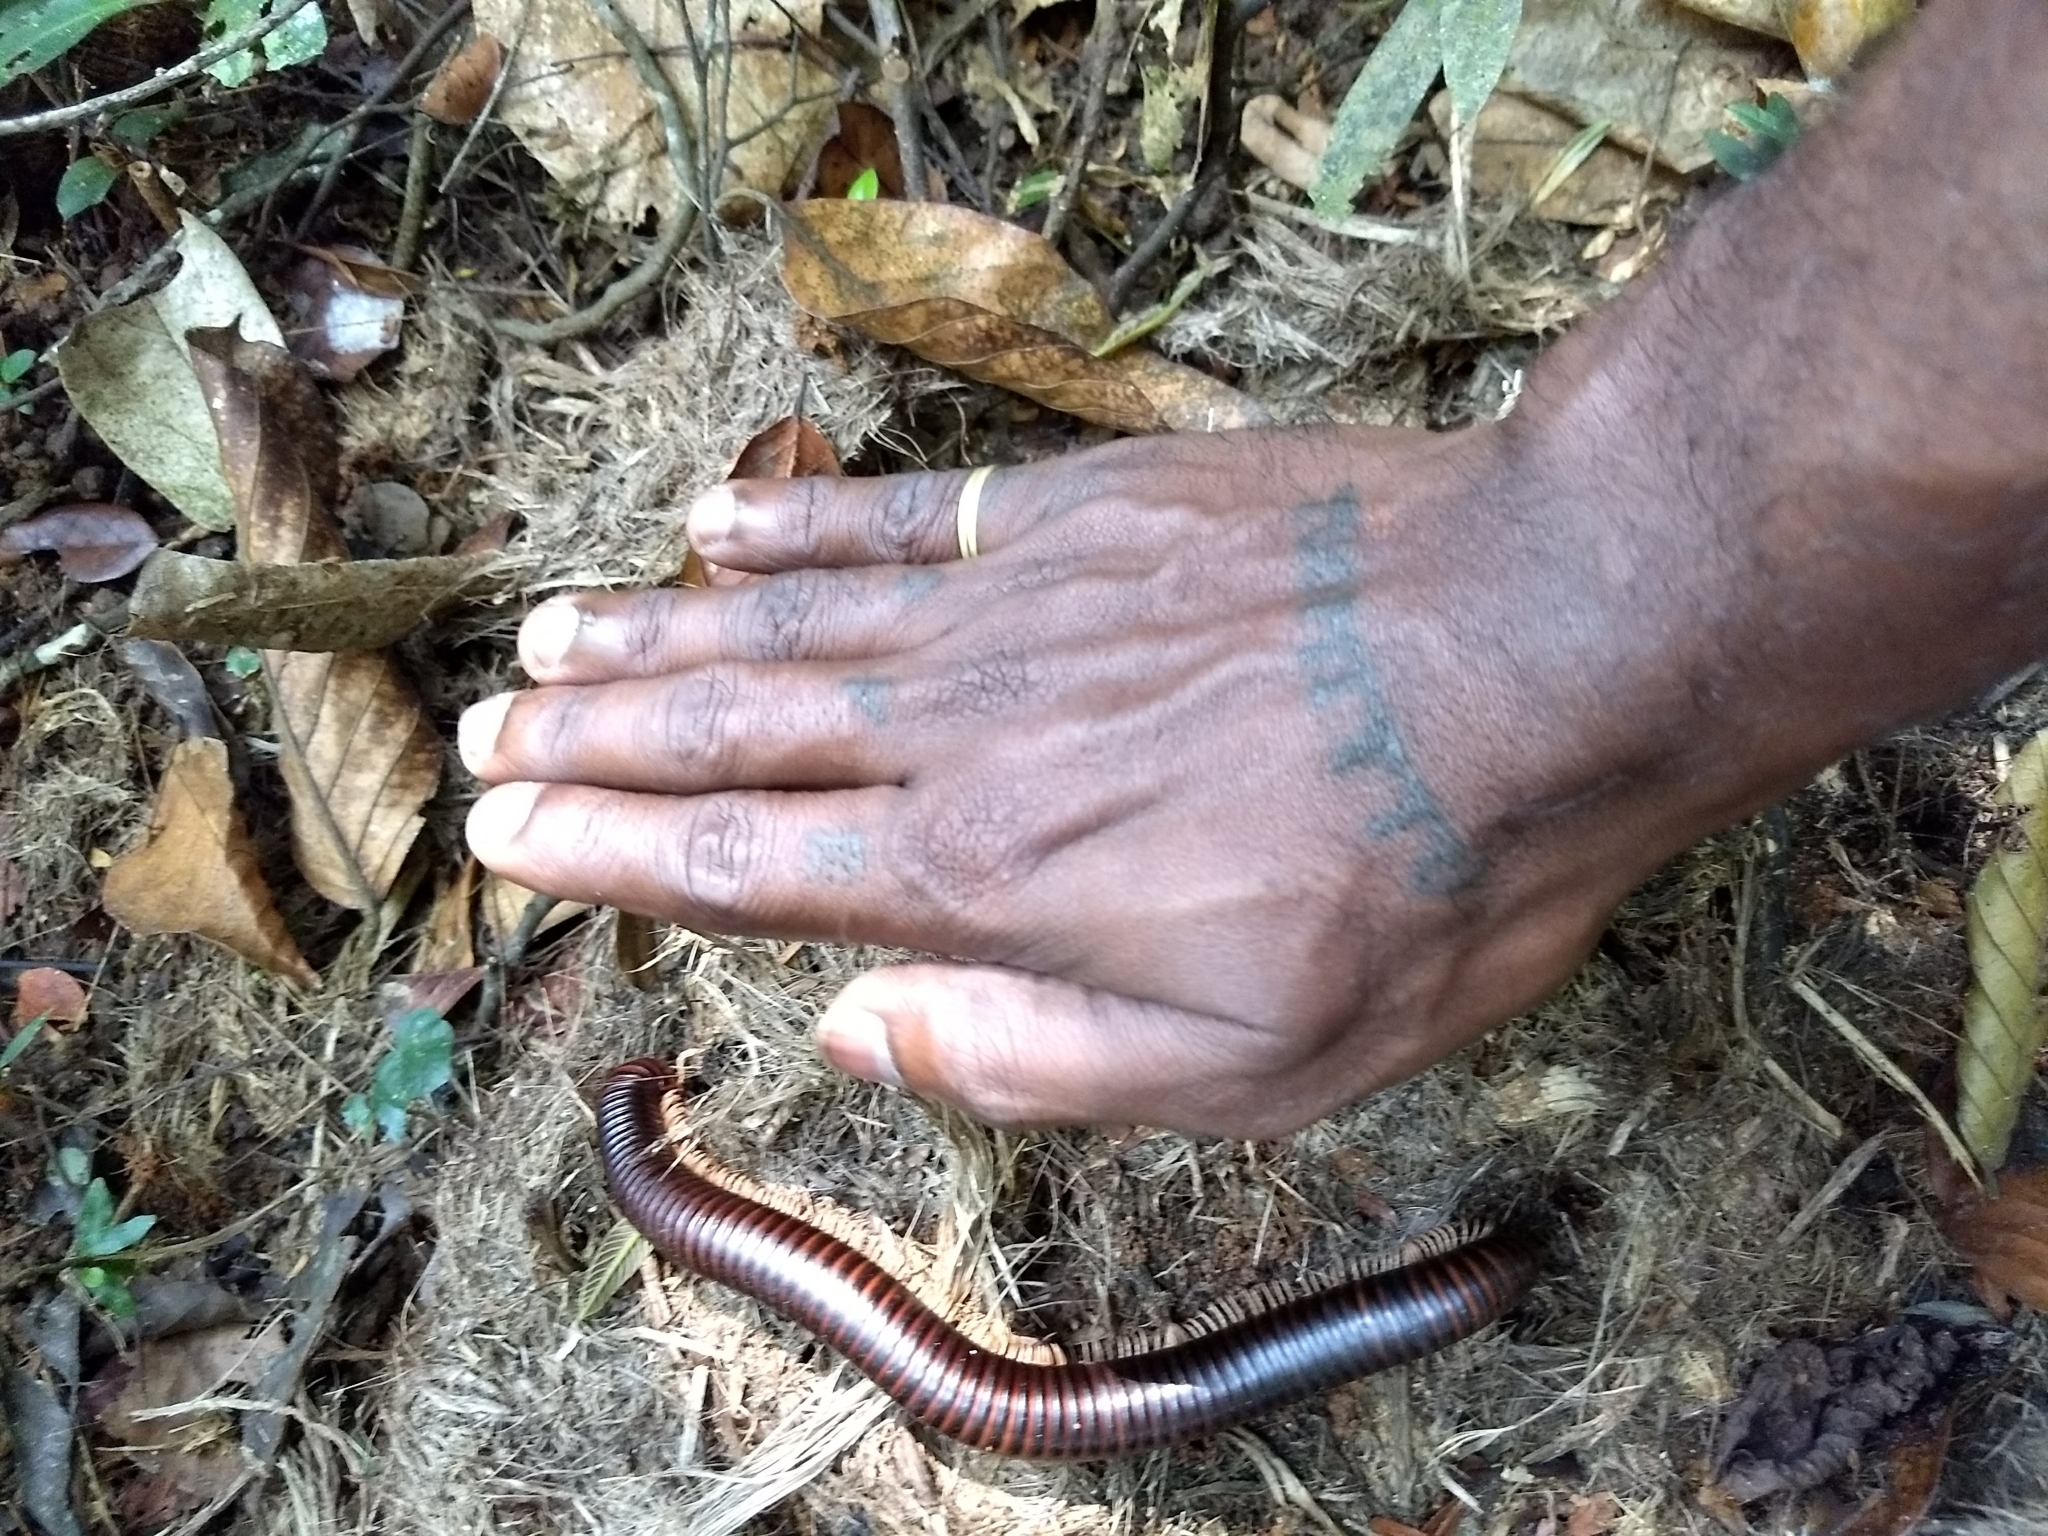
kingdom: Animalia
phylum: Arthropoda
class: Diplopoda
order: Spirostreptida
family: Harpagophoridae
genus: Phyllogonostreptus
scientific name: Phyllogonostreptus nigrolabiatus
